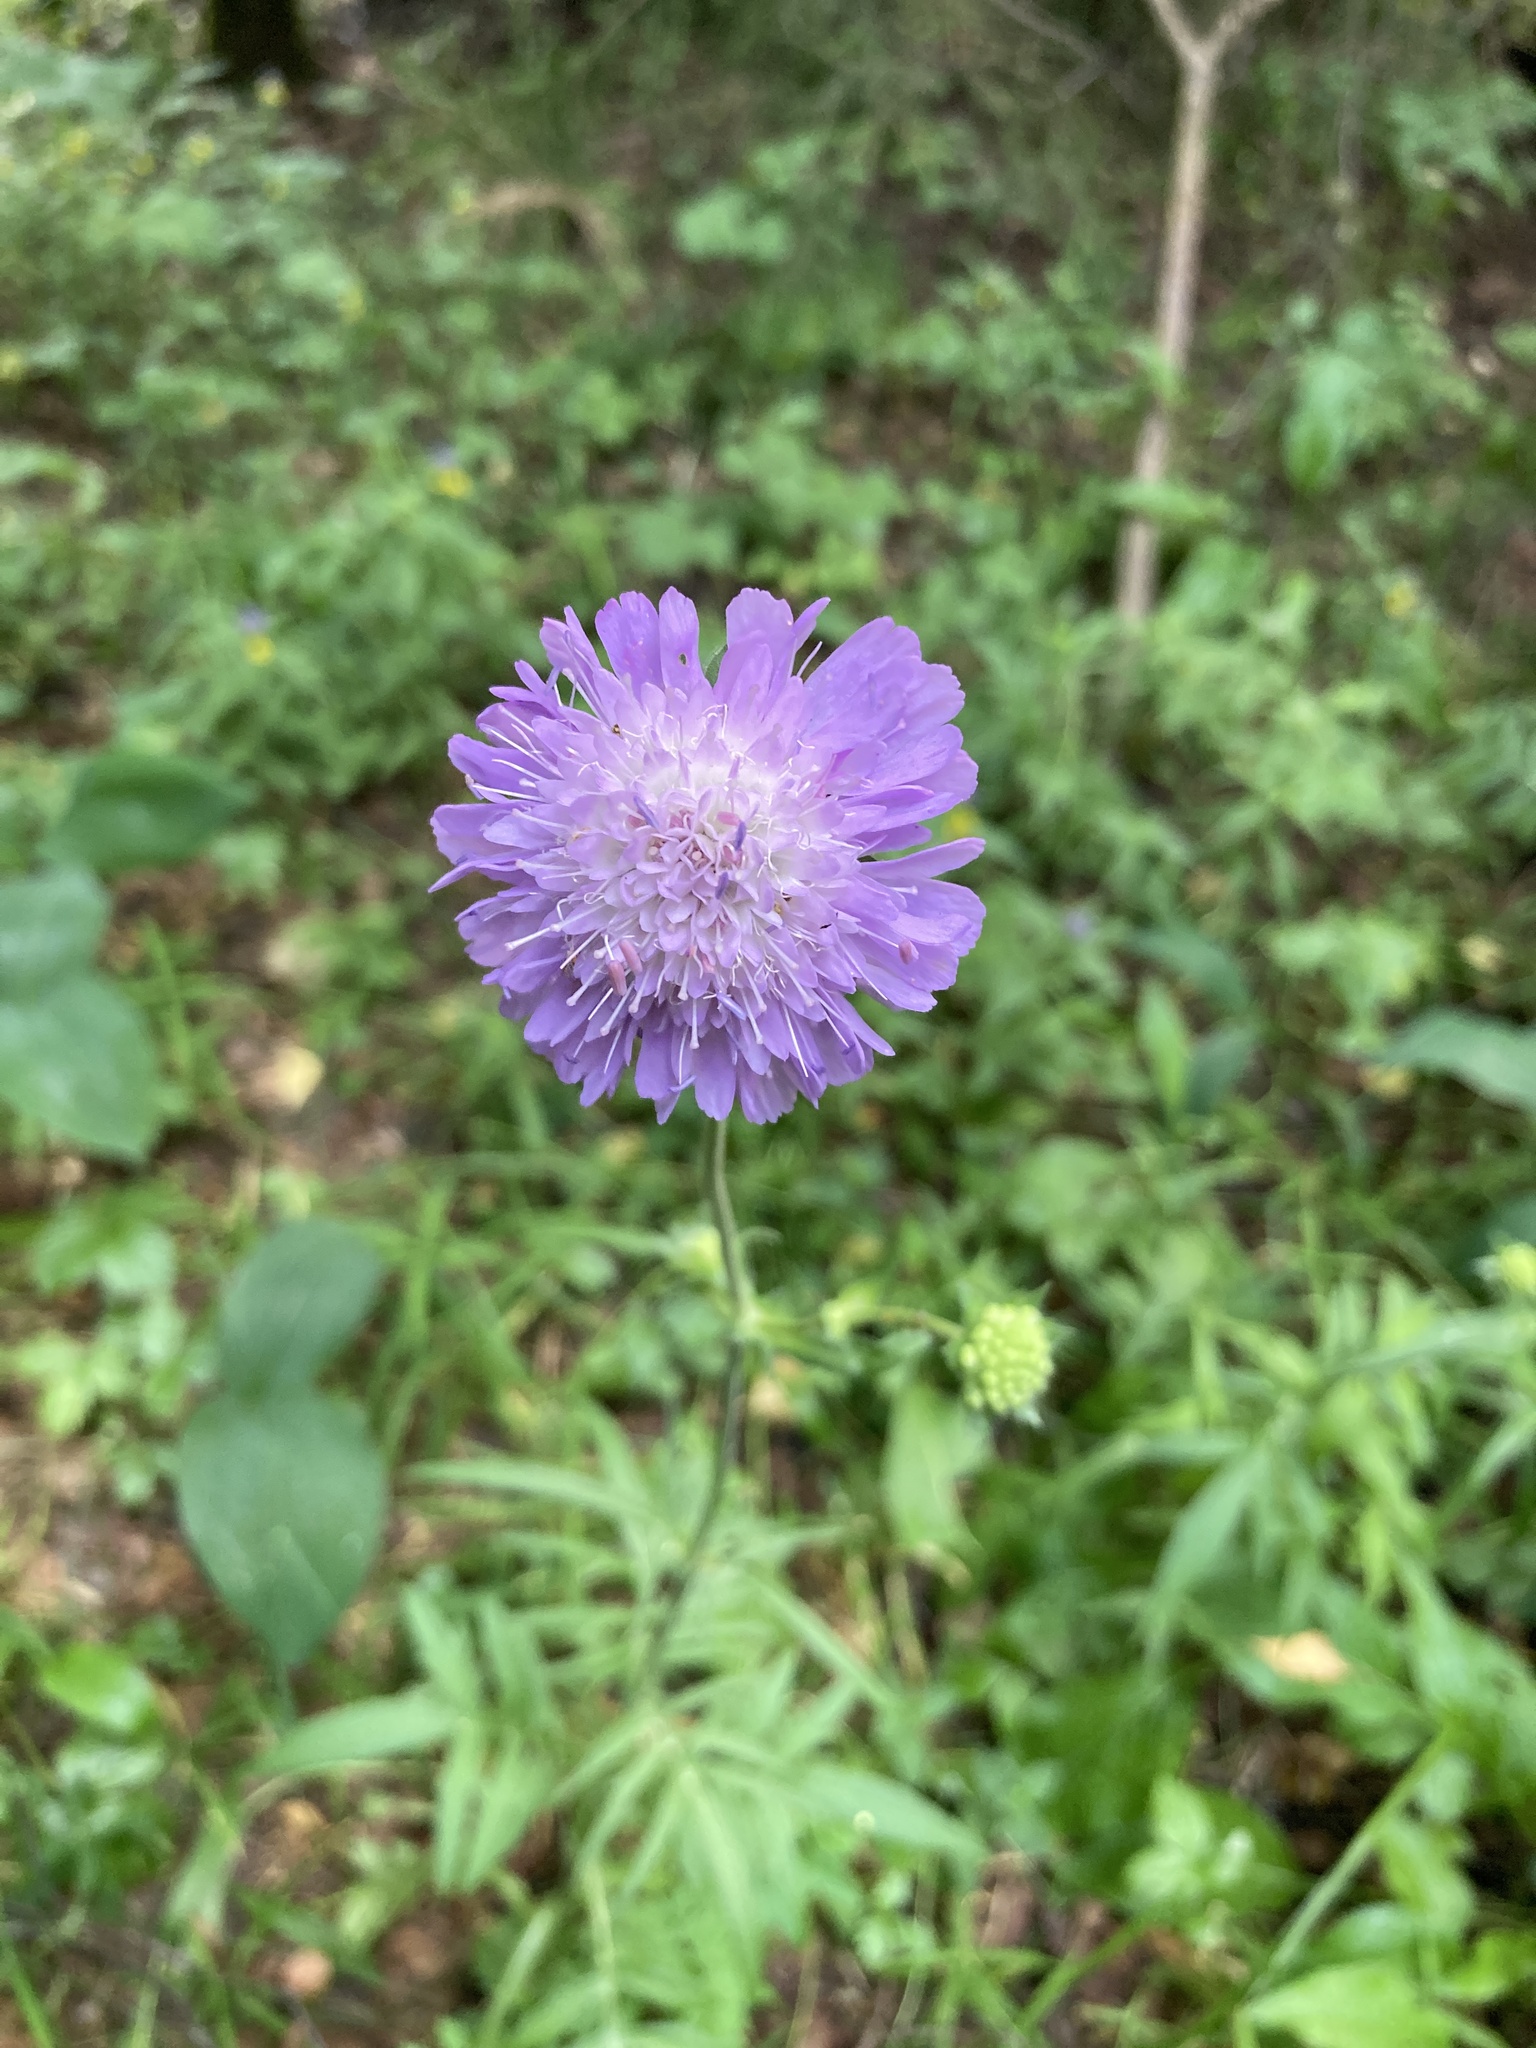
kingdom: Plantae
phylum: Tracheophyta
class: Magnoliopsida
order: Dipsacales
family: Caprifoliaceae
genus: Knautia
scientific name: Knautia arvensis
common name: Field scabiosa
